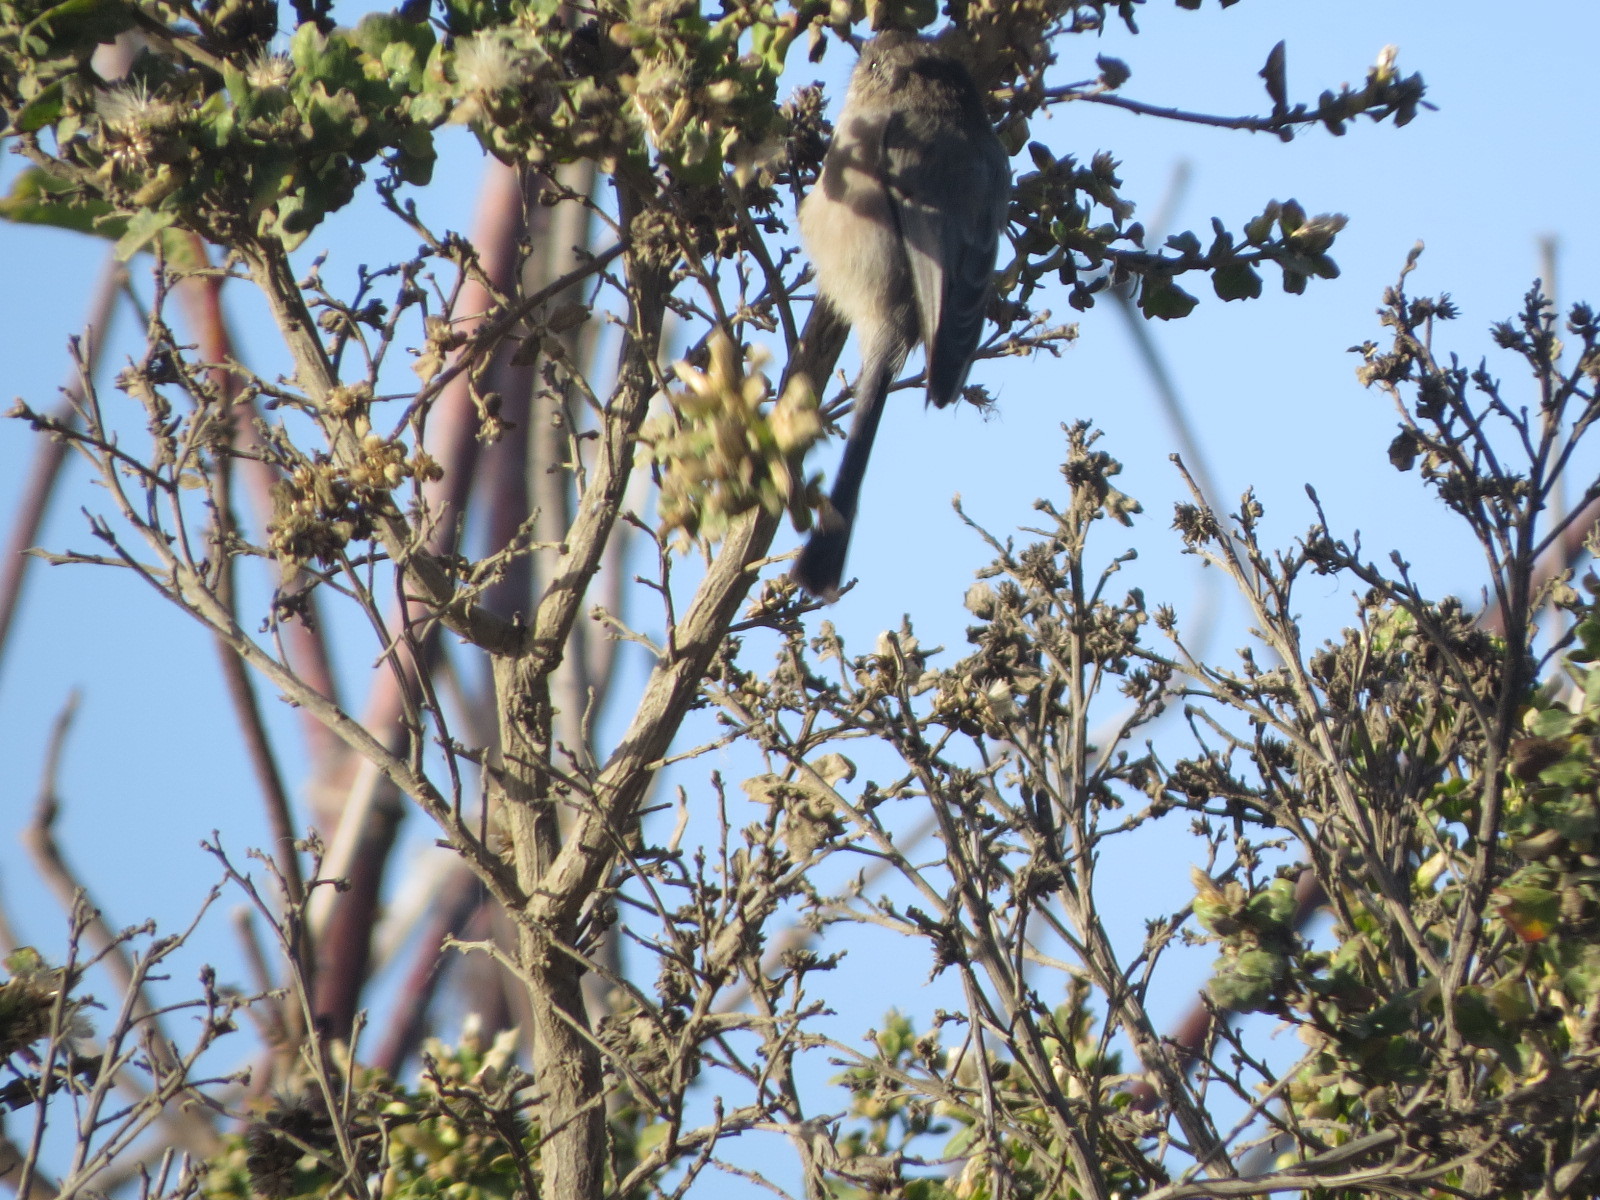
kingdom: Animalia
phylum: Chordata
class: Aves
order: Passeriformes
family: Aegithalidae
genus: Psaltriparus
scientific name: Psaltriparus minimus
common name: American bushtit
